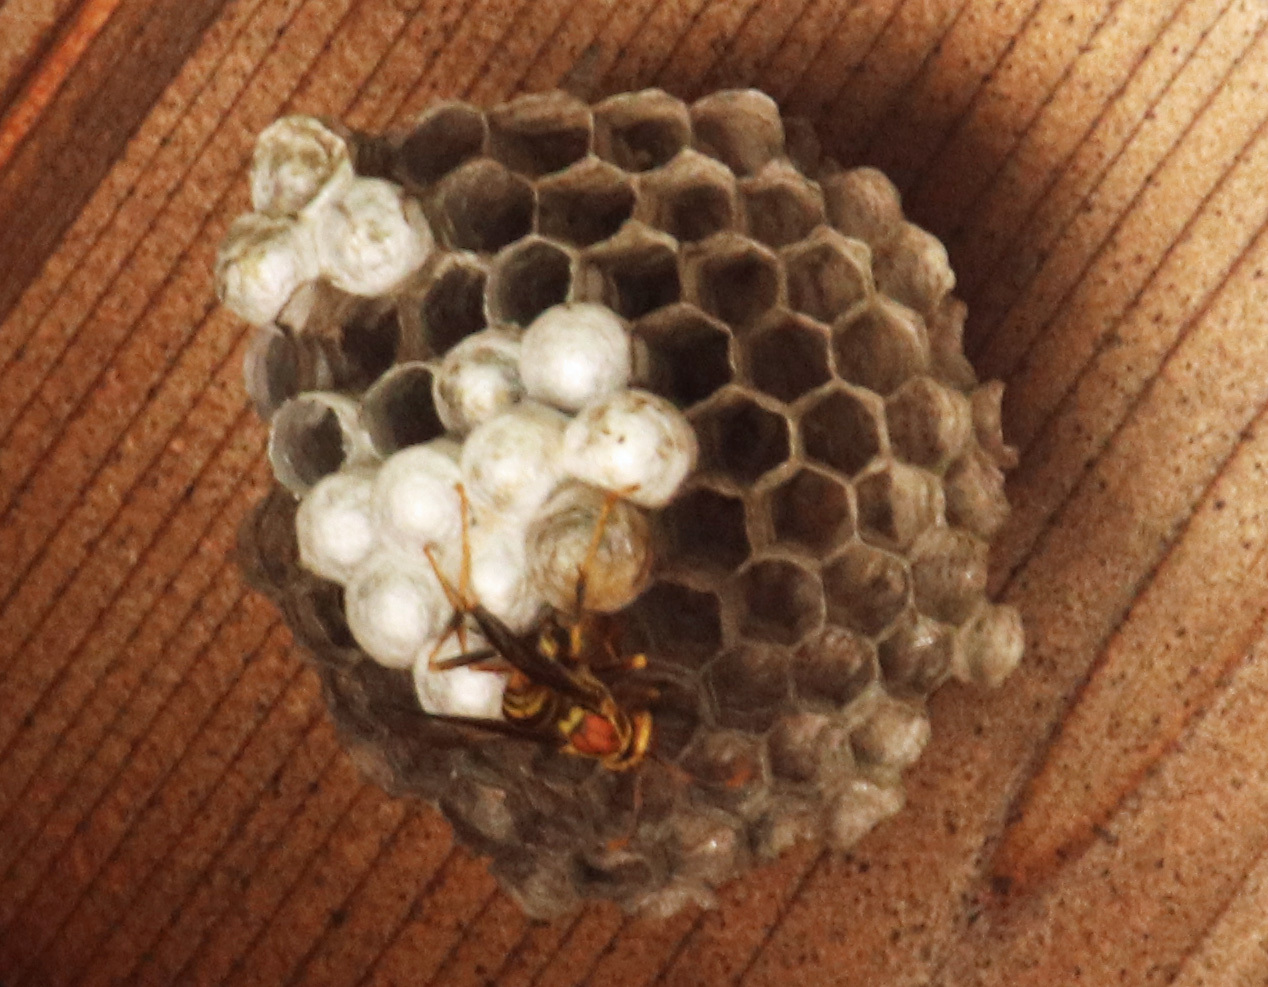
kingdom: Animalia
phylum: Arthropoda
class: Insecta
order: Hymenoptera
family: Eumenidae
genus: Polistes
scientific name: Polistes exclamans
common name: Paper wasp
